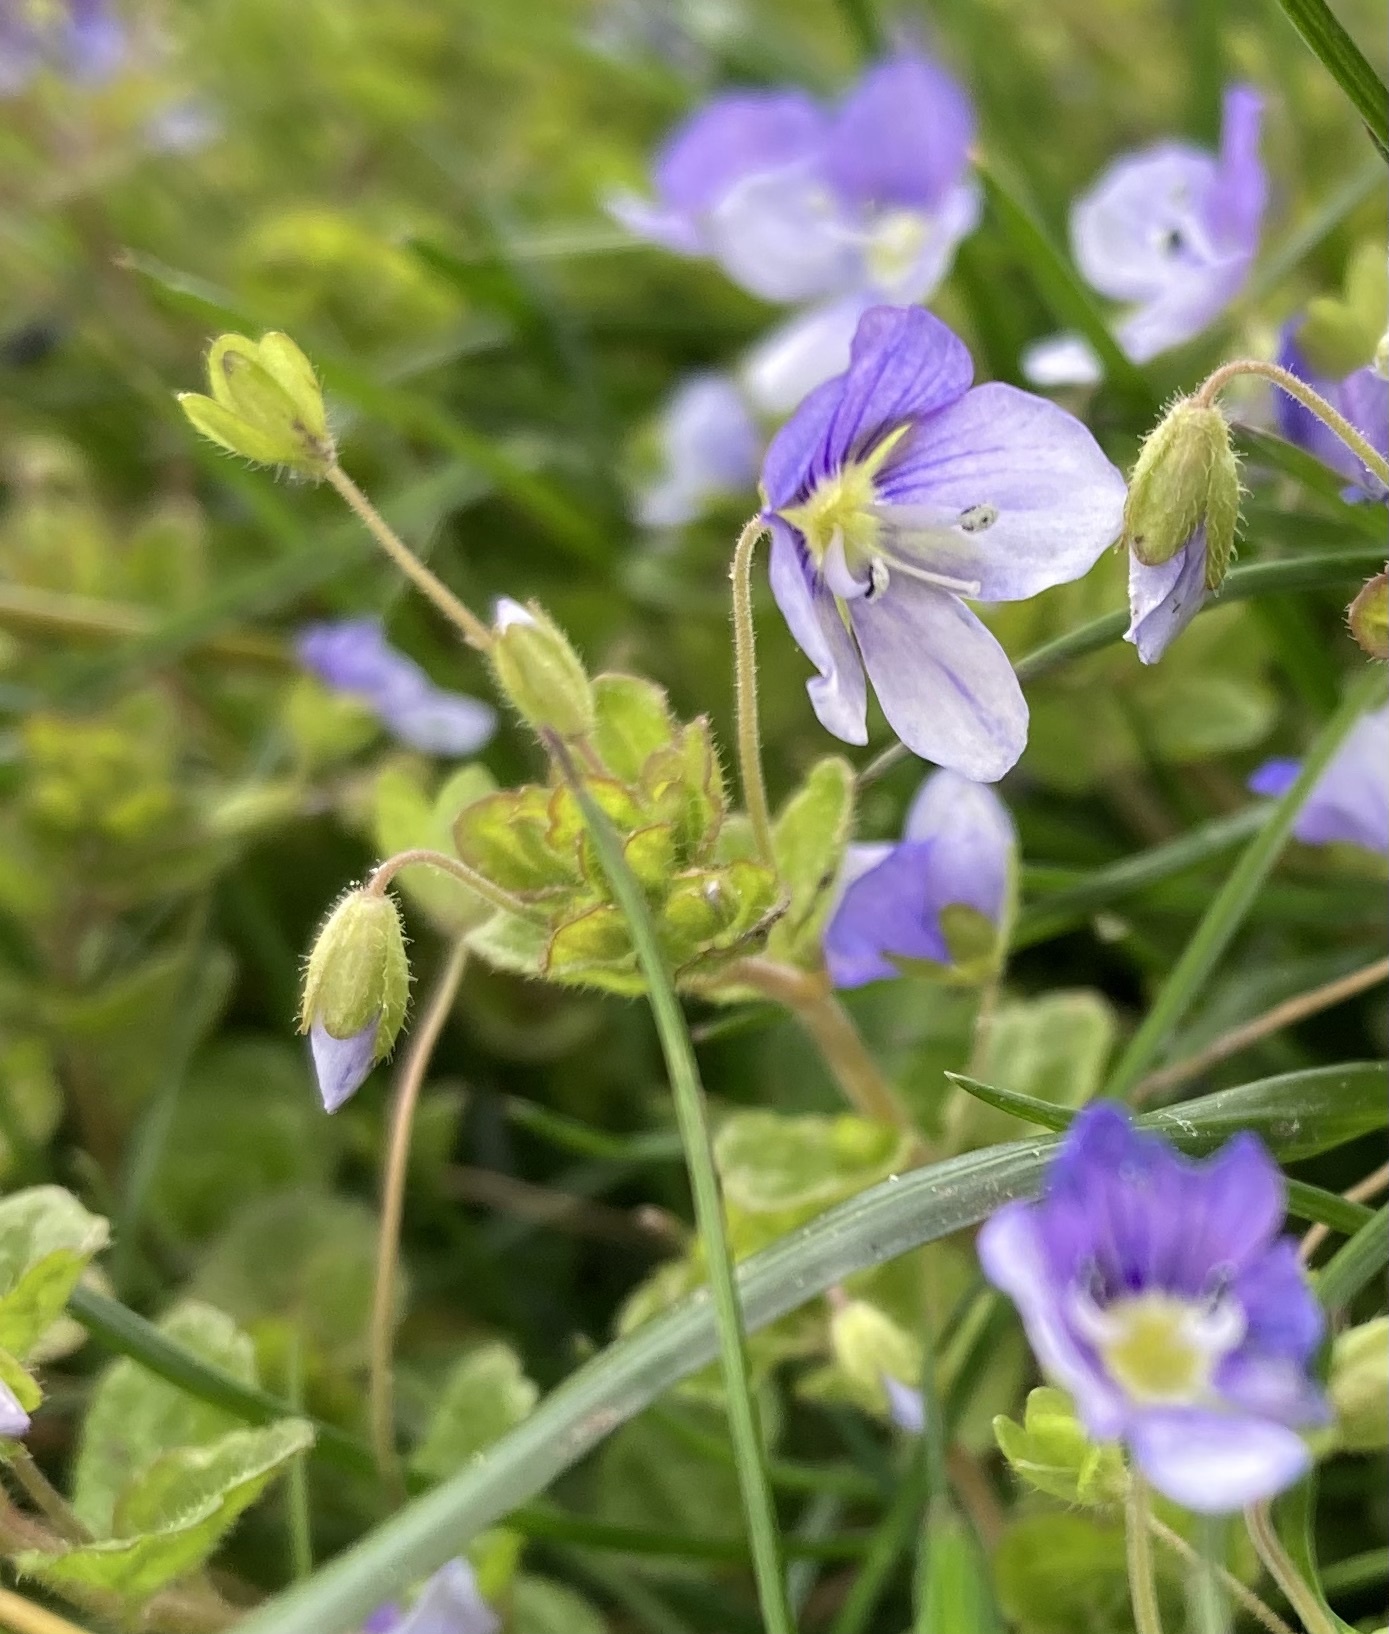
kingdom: Plantae
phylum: Tracheophyta
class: Magnoliopsida
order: Lamiales
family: Plantaginaceae
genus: Veronica
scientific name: Veronica filiformis
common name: Slender speedwell
